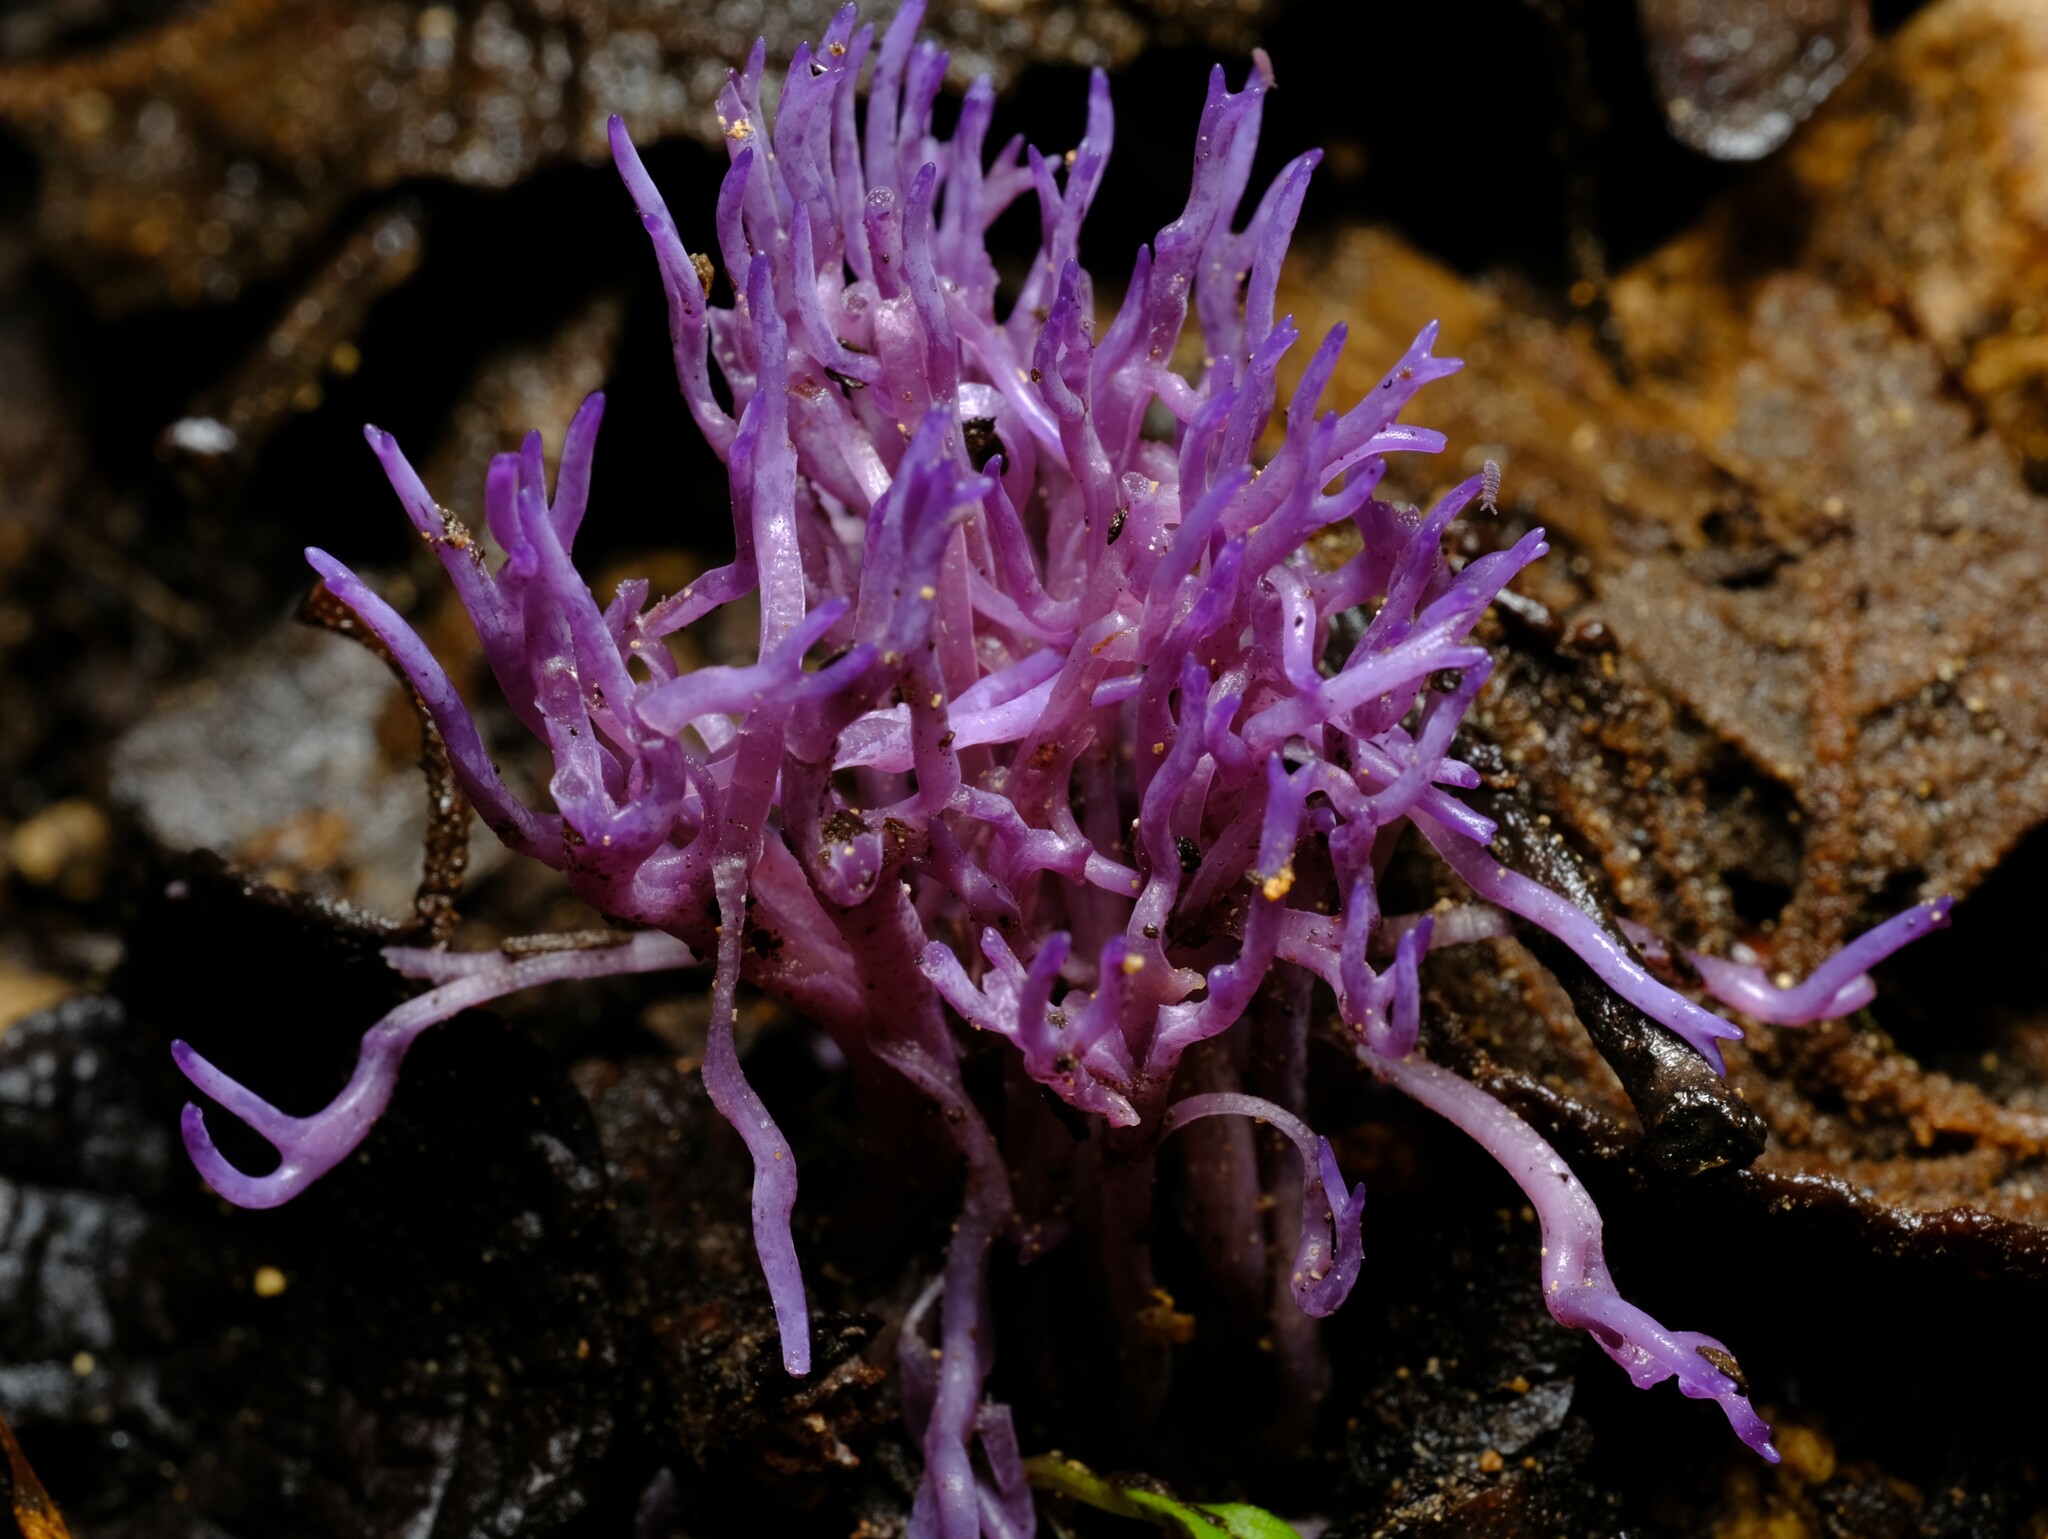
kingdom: Fungi
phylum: Basidiomycota
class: Agaricomycetes
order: Agaricales
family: Clavariaceae
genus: Ramariopsis
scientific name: Ramariopsis pulchella
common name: Lilac coral
